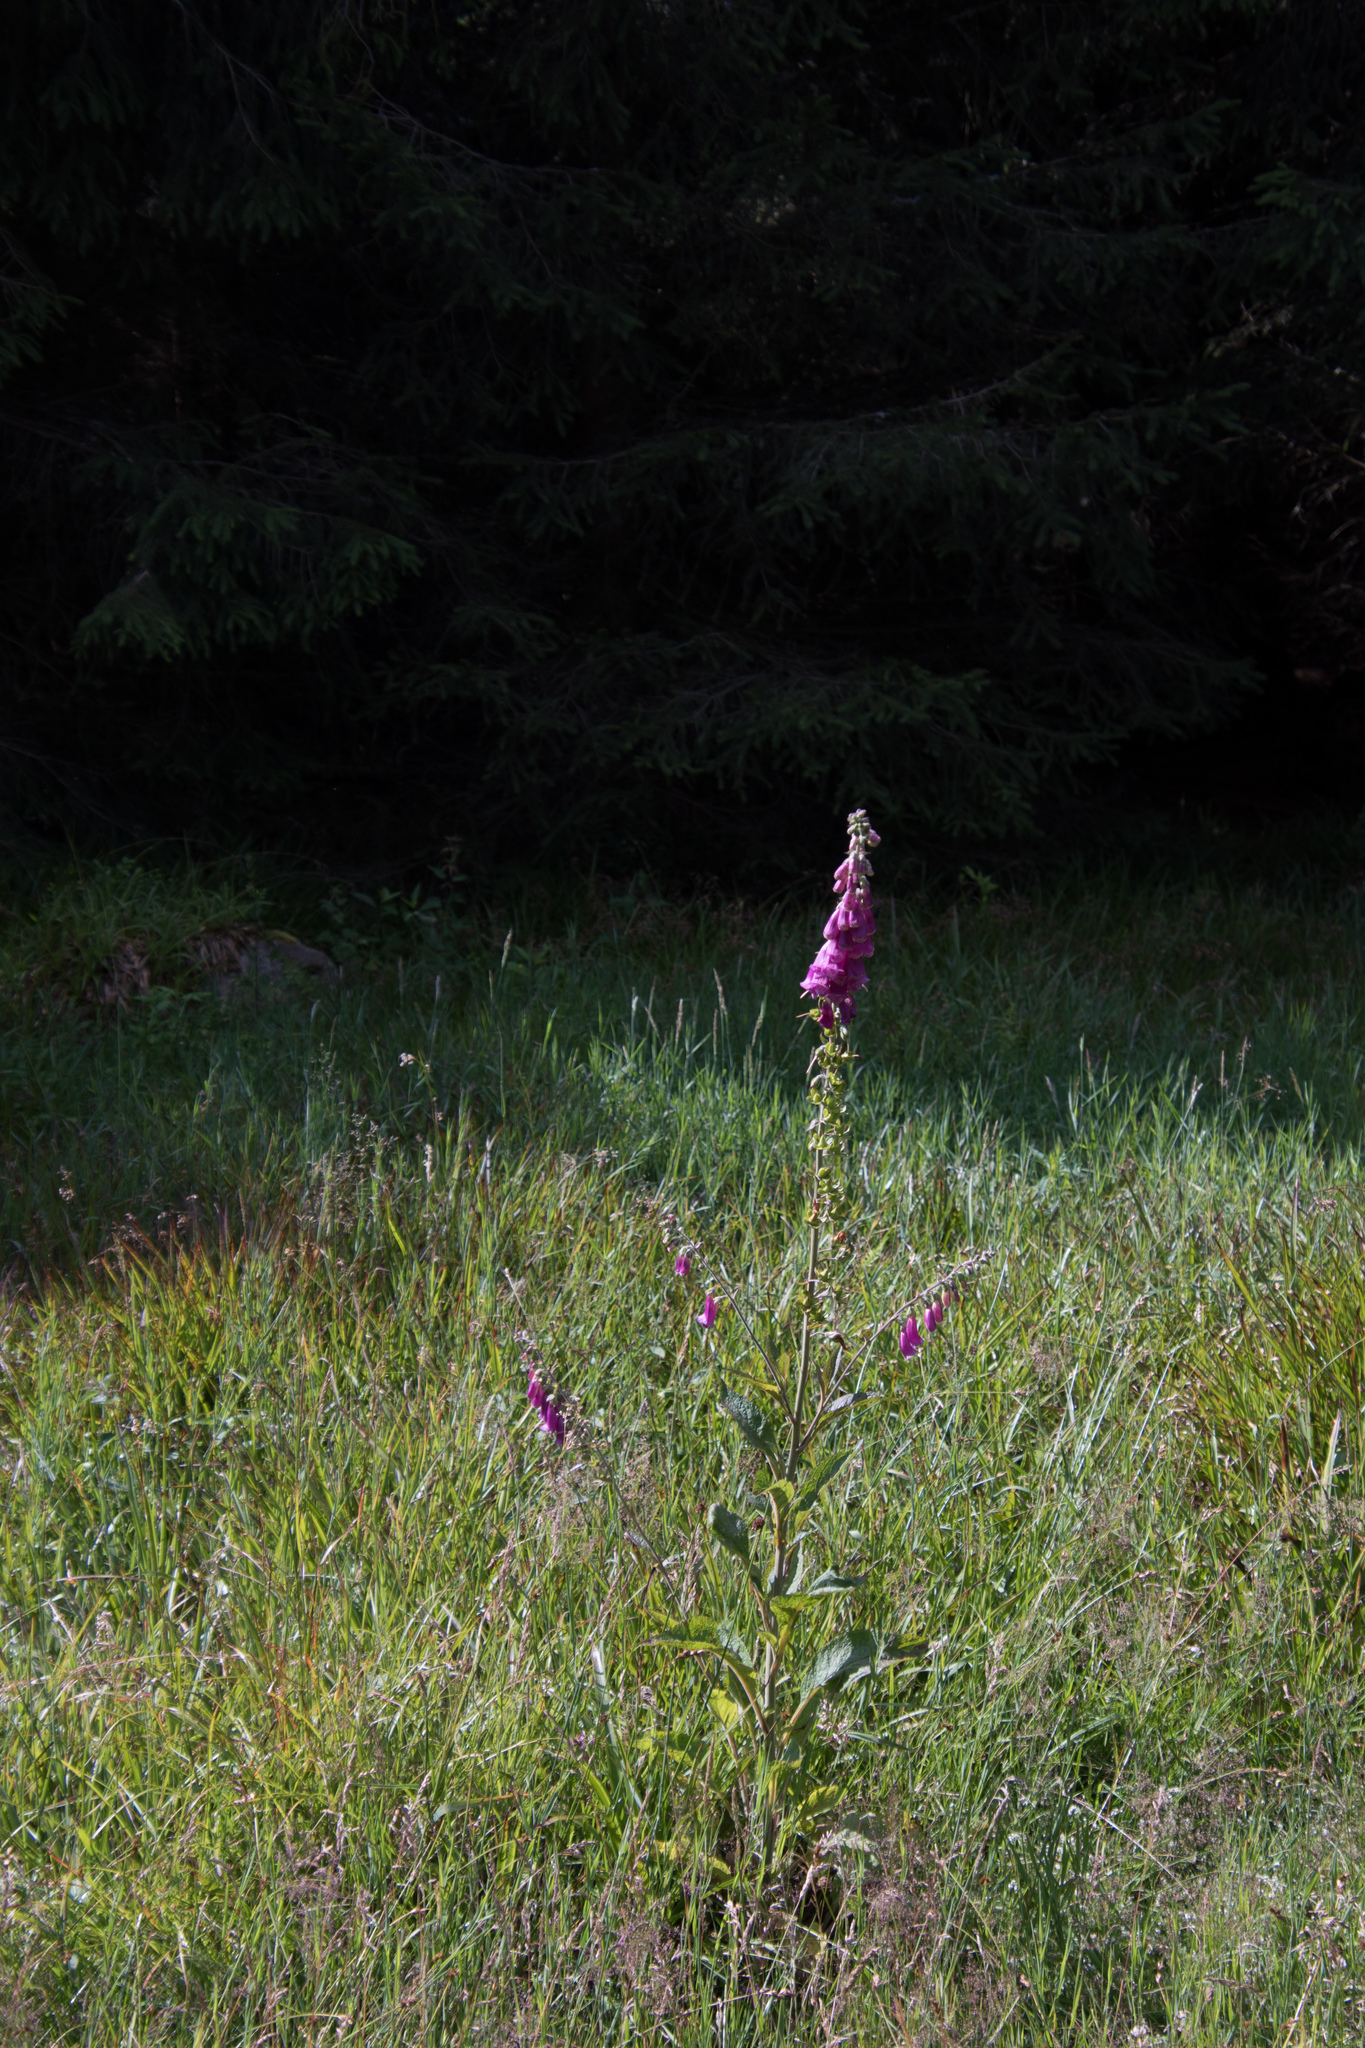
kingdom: Plantae
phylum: Tracheophyta
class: Magnoliopsida
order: Lamiales
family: Plantaginaceae
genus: Digitalis
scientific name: Digitalis purpurea
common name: Foxglove
